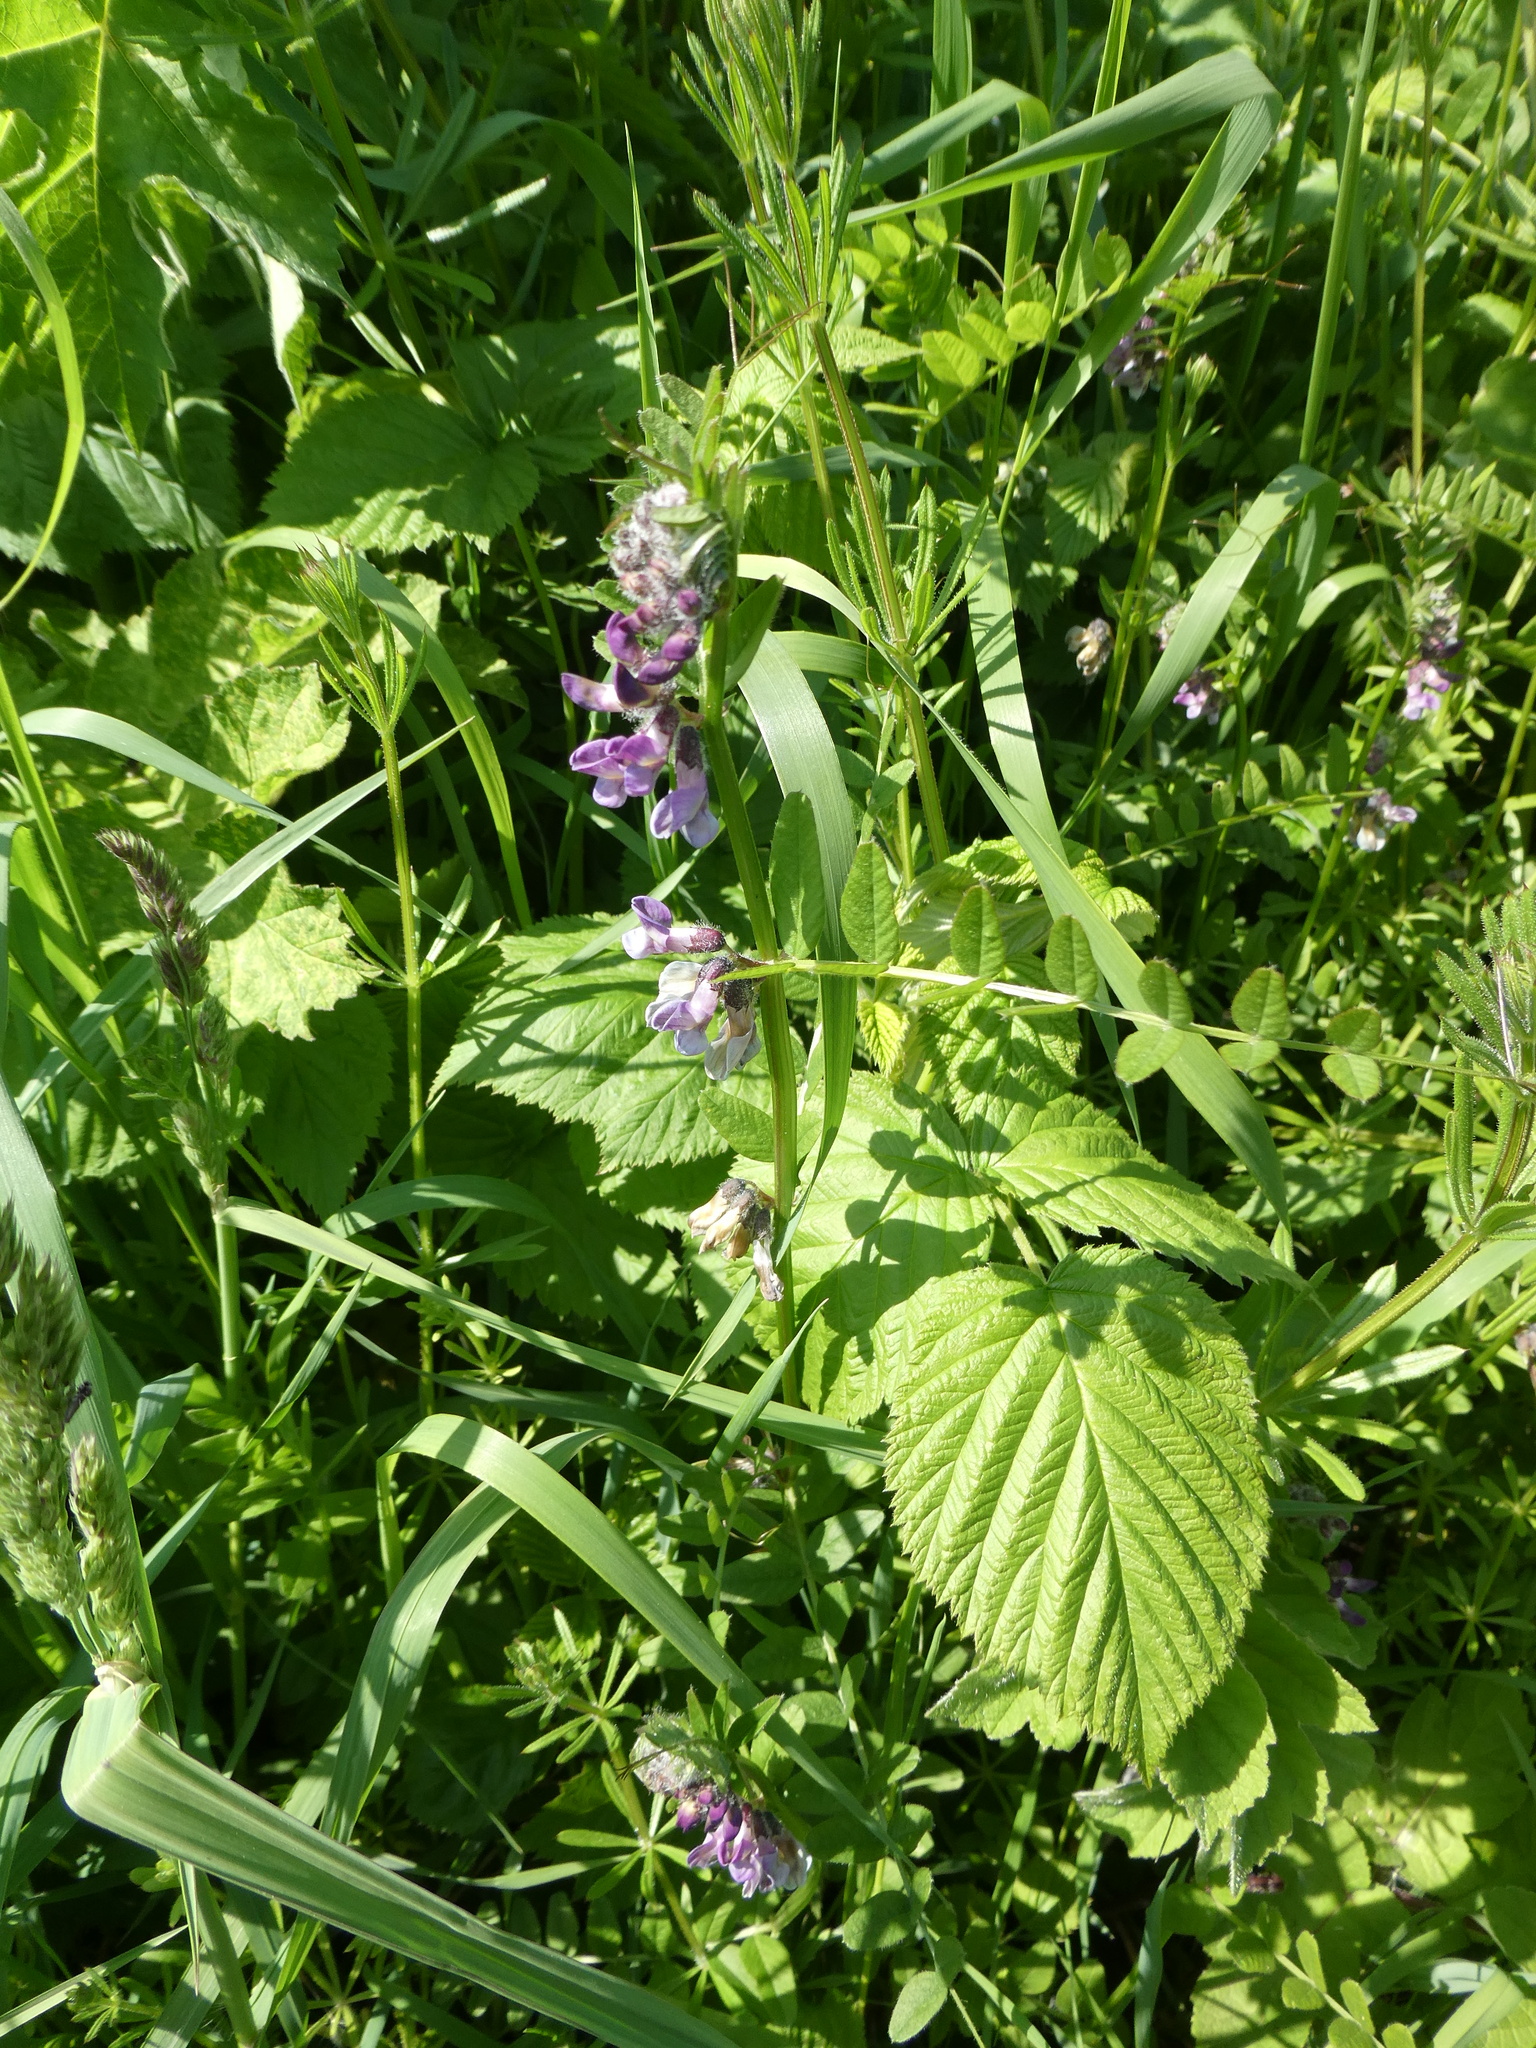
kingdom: Plantae
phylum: Tracheophyta
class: Magnoliopsida
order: Fabales
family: Fabaceae
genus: Vicia
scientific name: Vicia sepium
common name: Bush vetch
